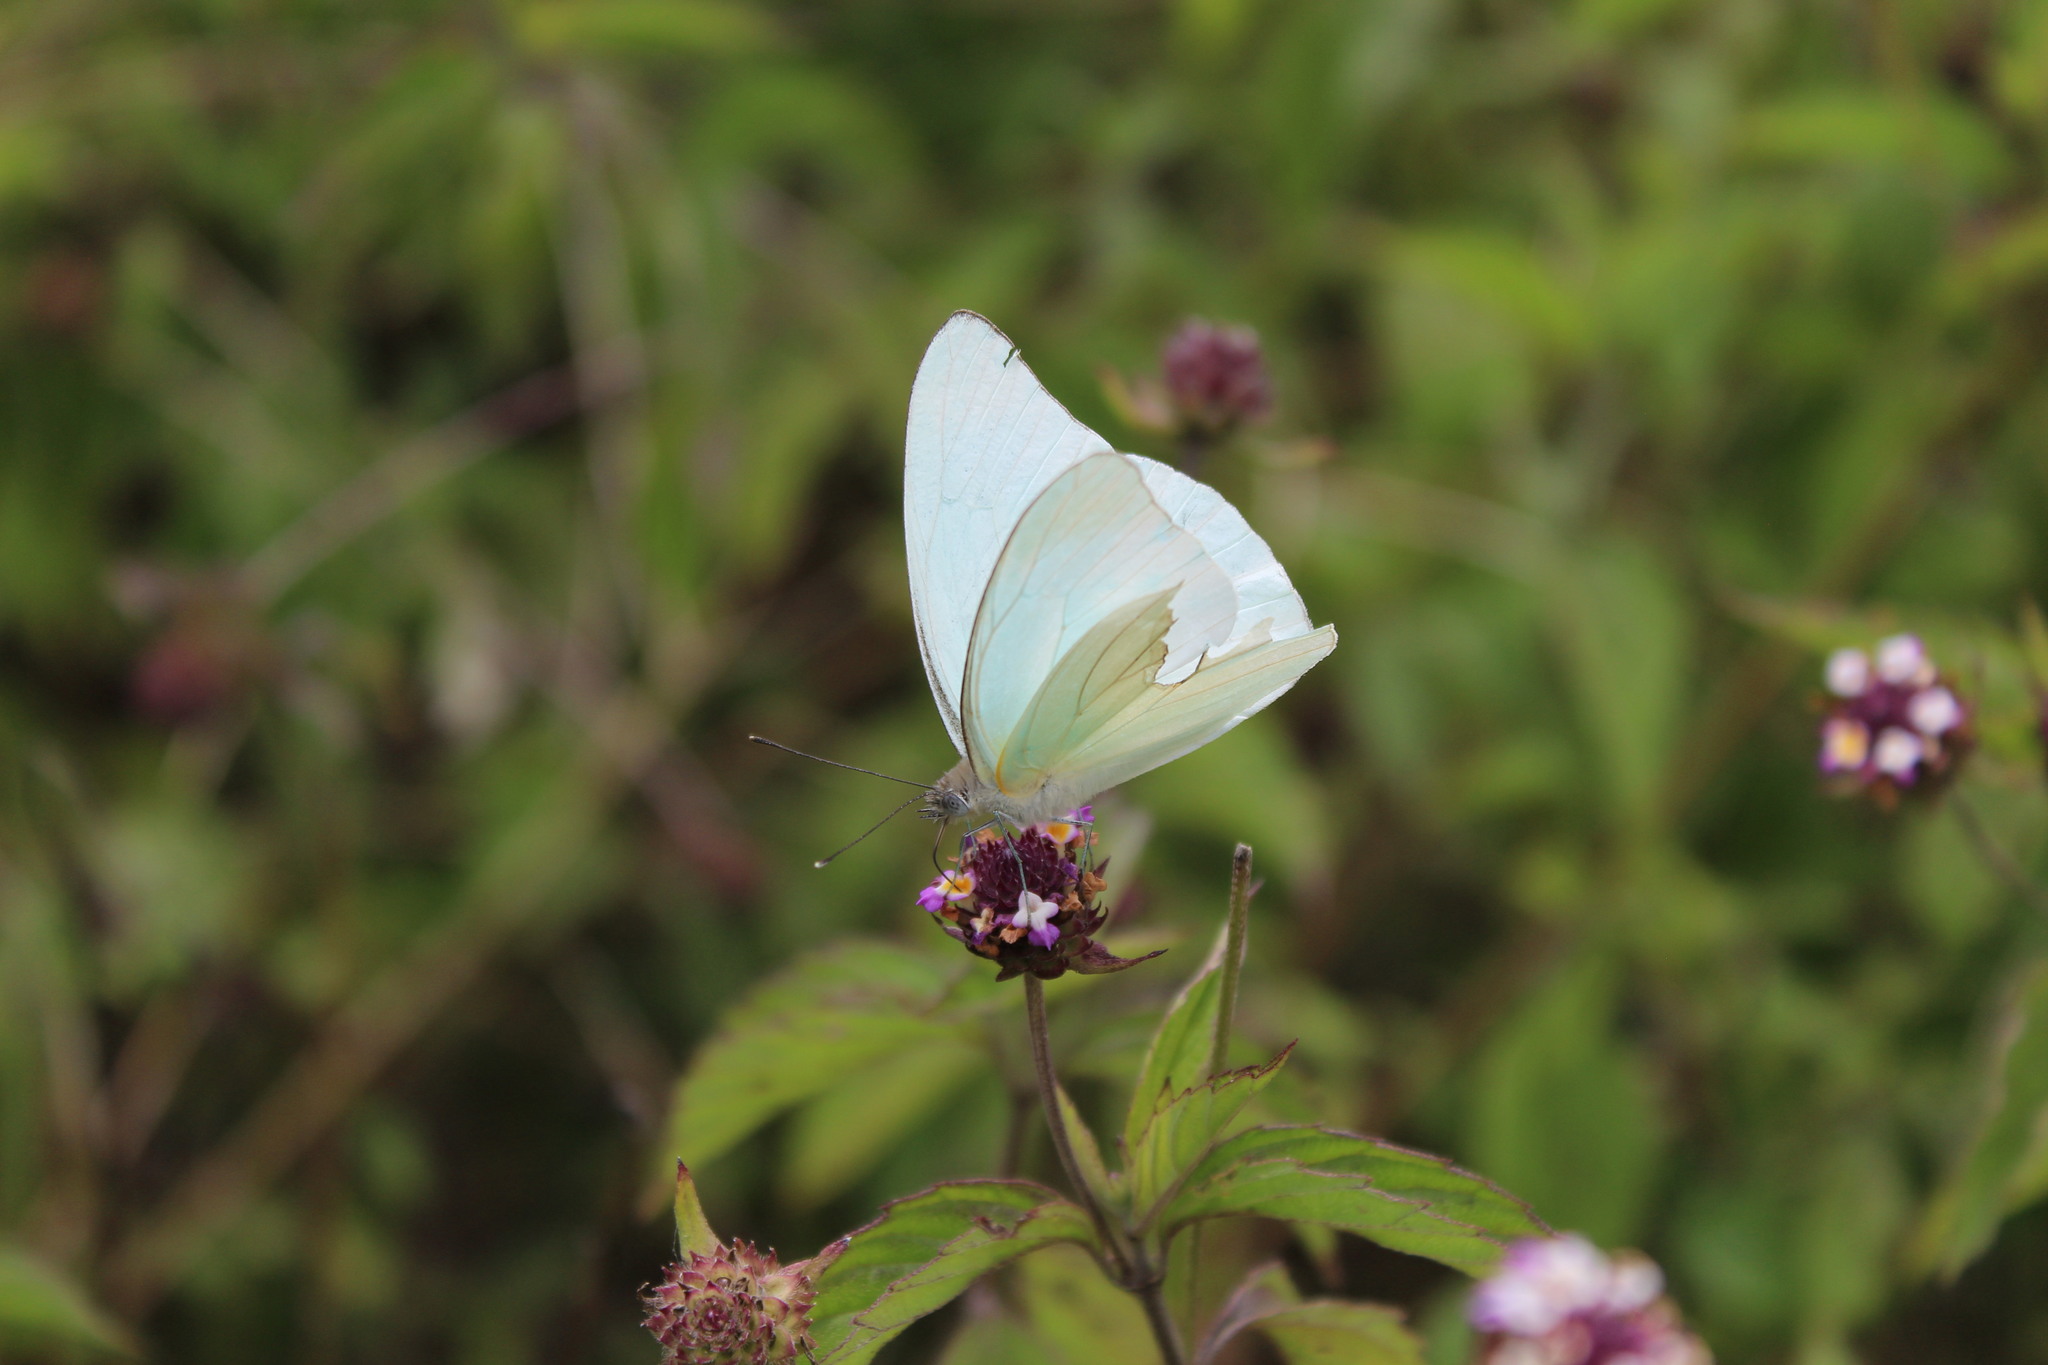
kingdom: Animalia
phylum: Arthropoda
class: Insecta
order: Lepidoptera
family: Pieridae
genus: Glutophrissa
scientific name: Glutophrissa drusilla
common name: Florida white
